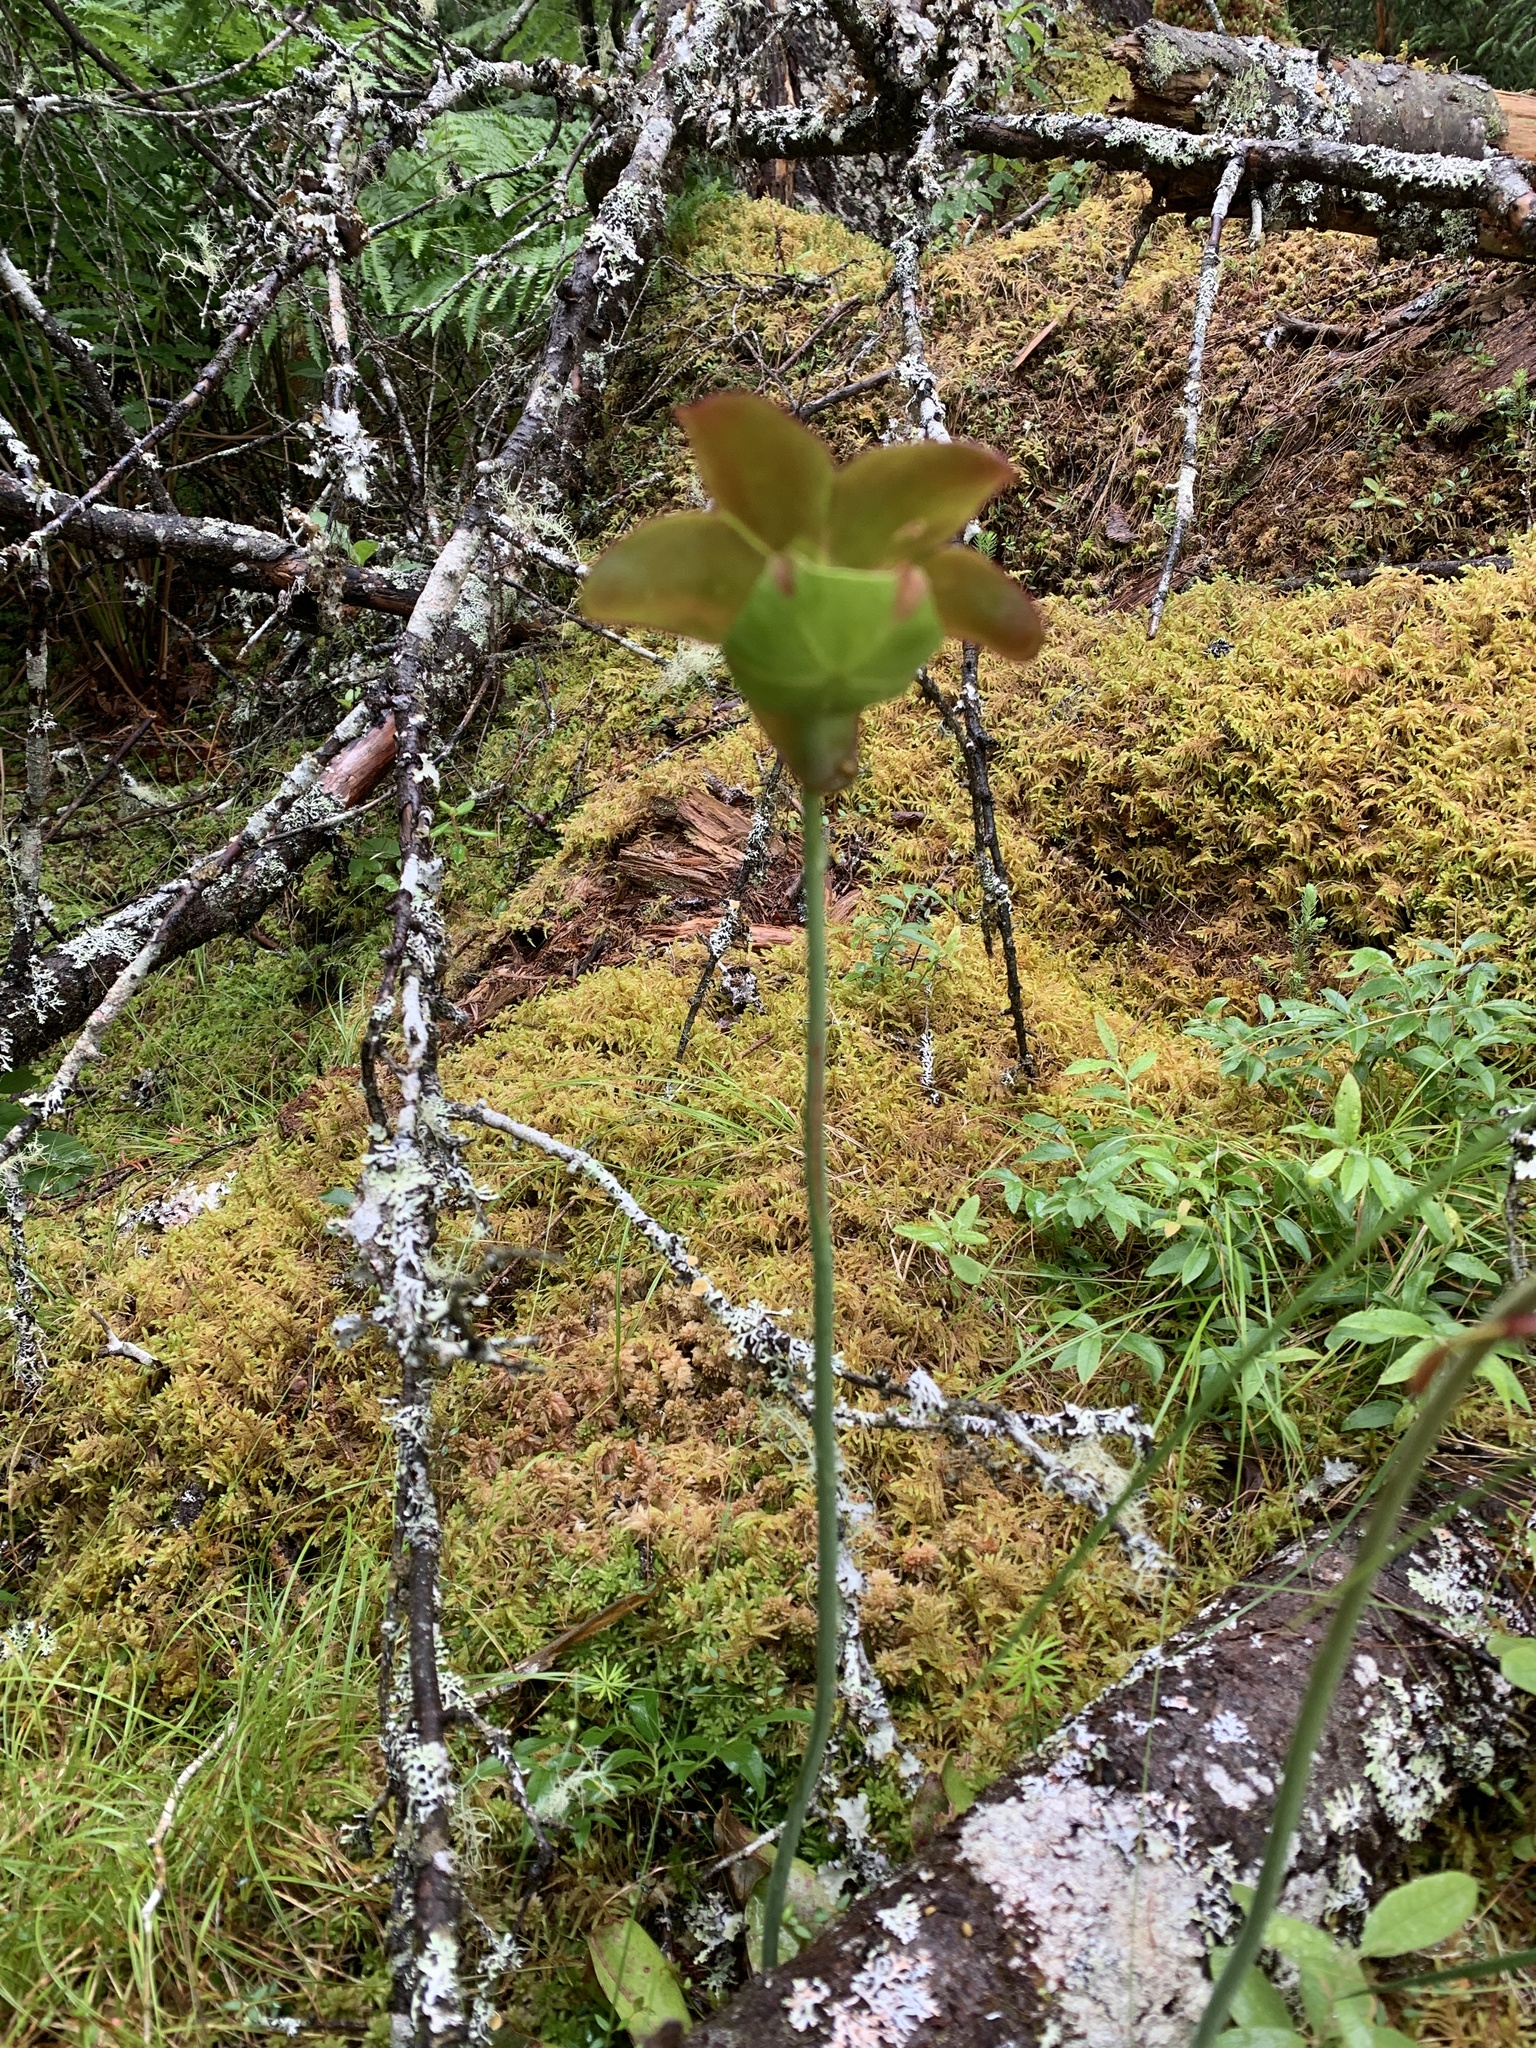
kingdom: Plantae
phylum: Tracheophyta
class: Magnoliopsida
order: Ericales
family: Sarraceniaceae
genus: Sarracenia
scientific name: Sarracenia purpurea
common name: Pitcherplant
